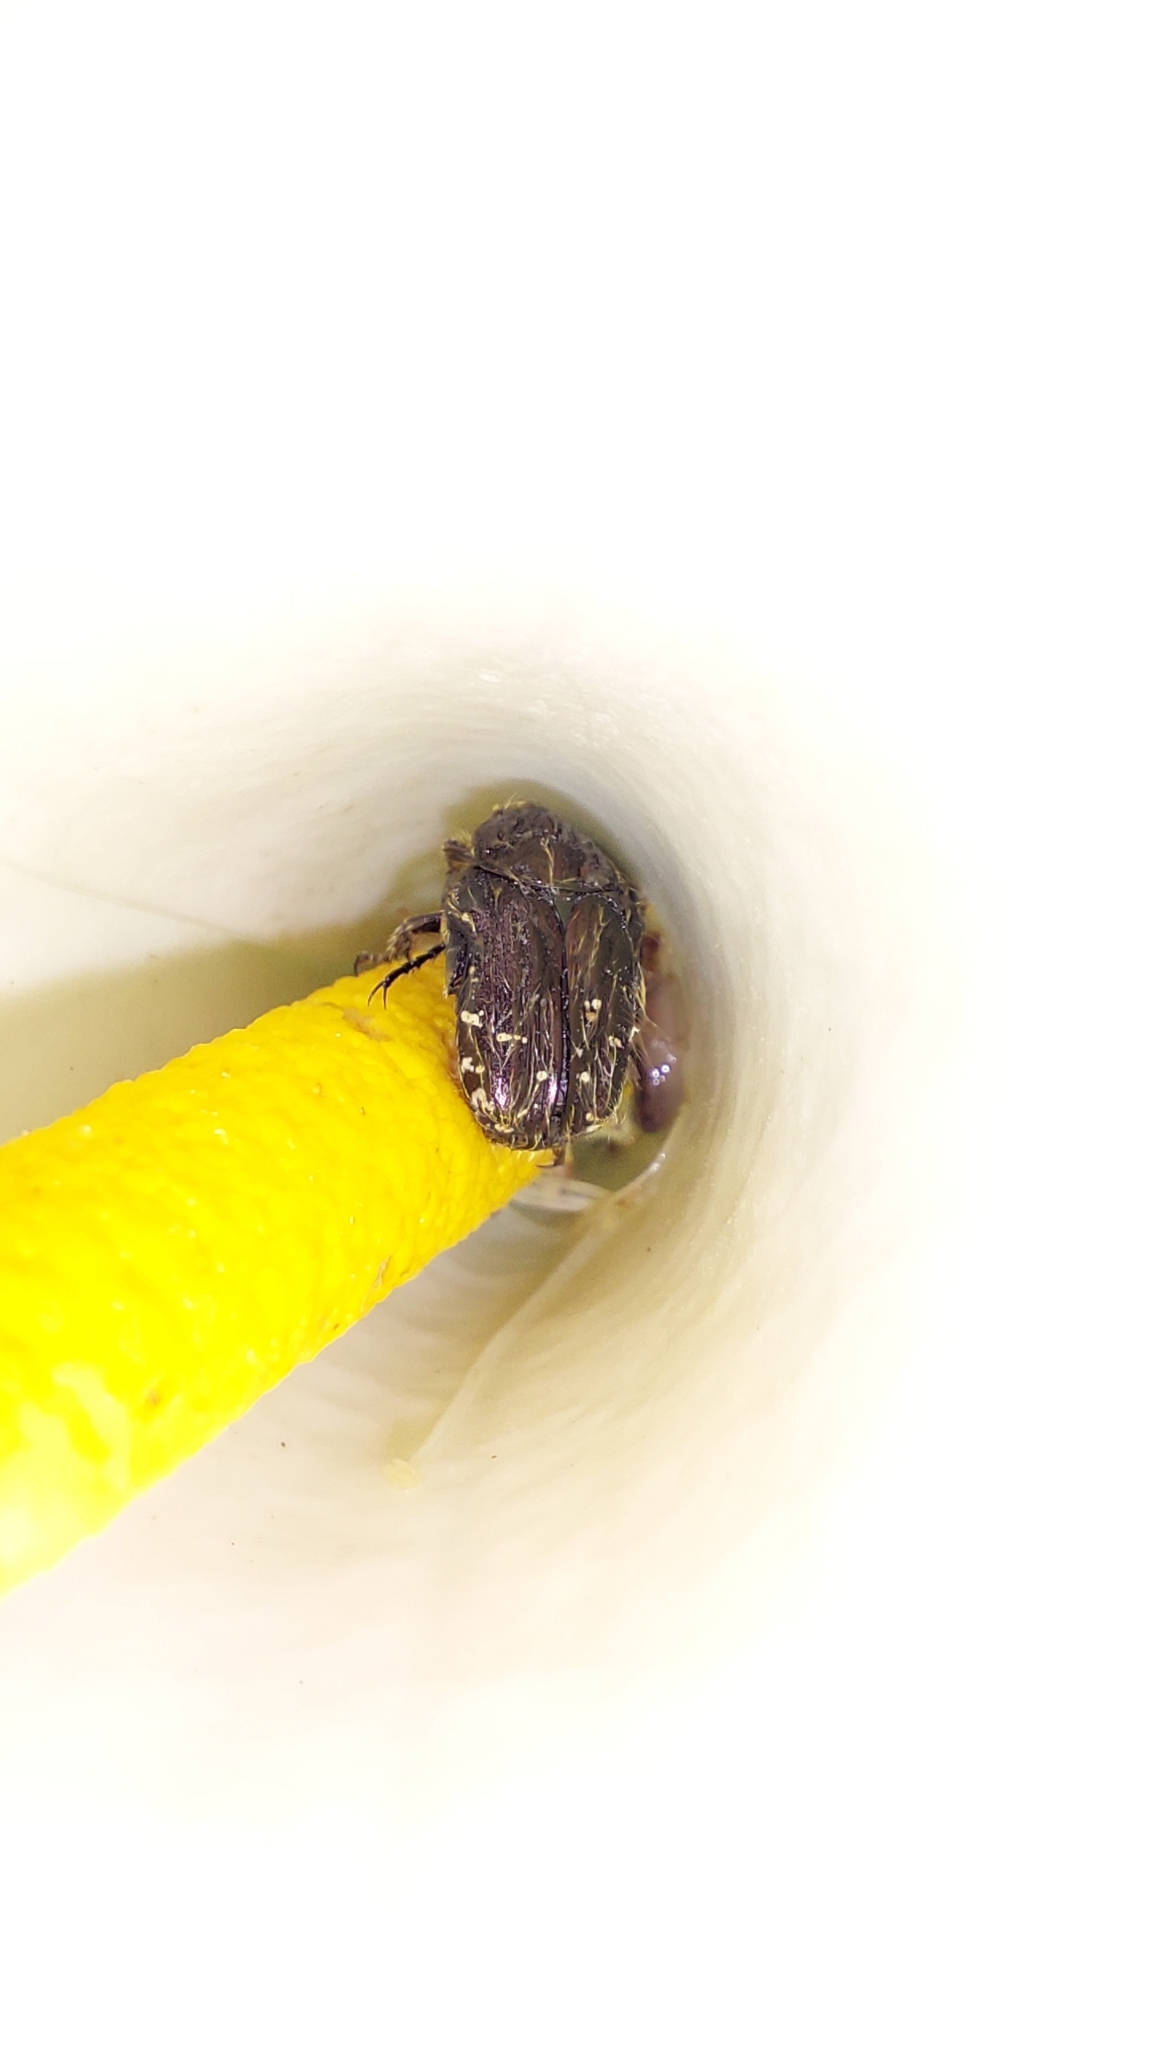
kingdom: Animalia
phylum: Arthropoda
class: Insecta
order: Coleoptera
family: Scarabaeidae
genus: Oxythyrea
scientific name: Oxythyrea funesta
